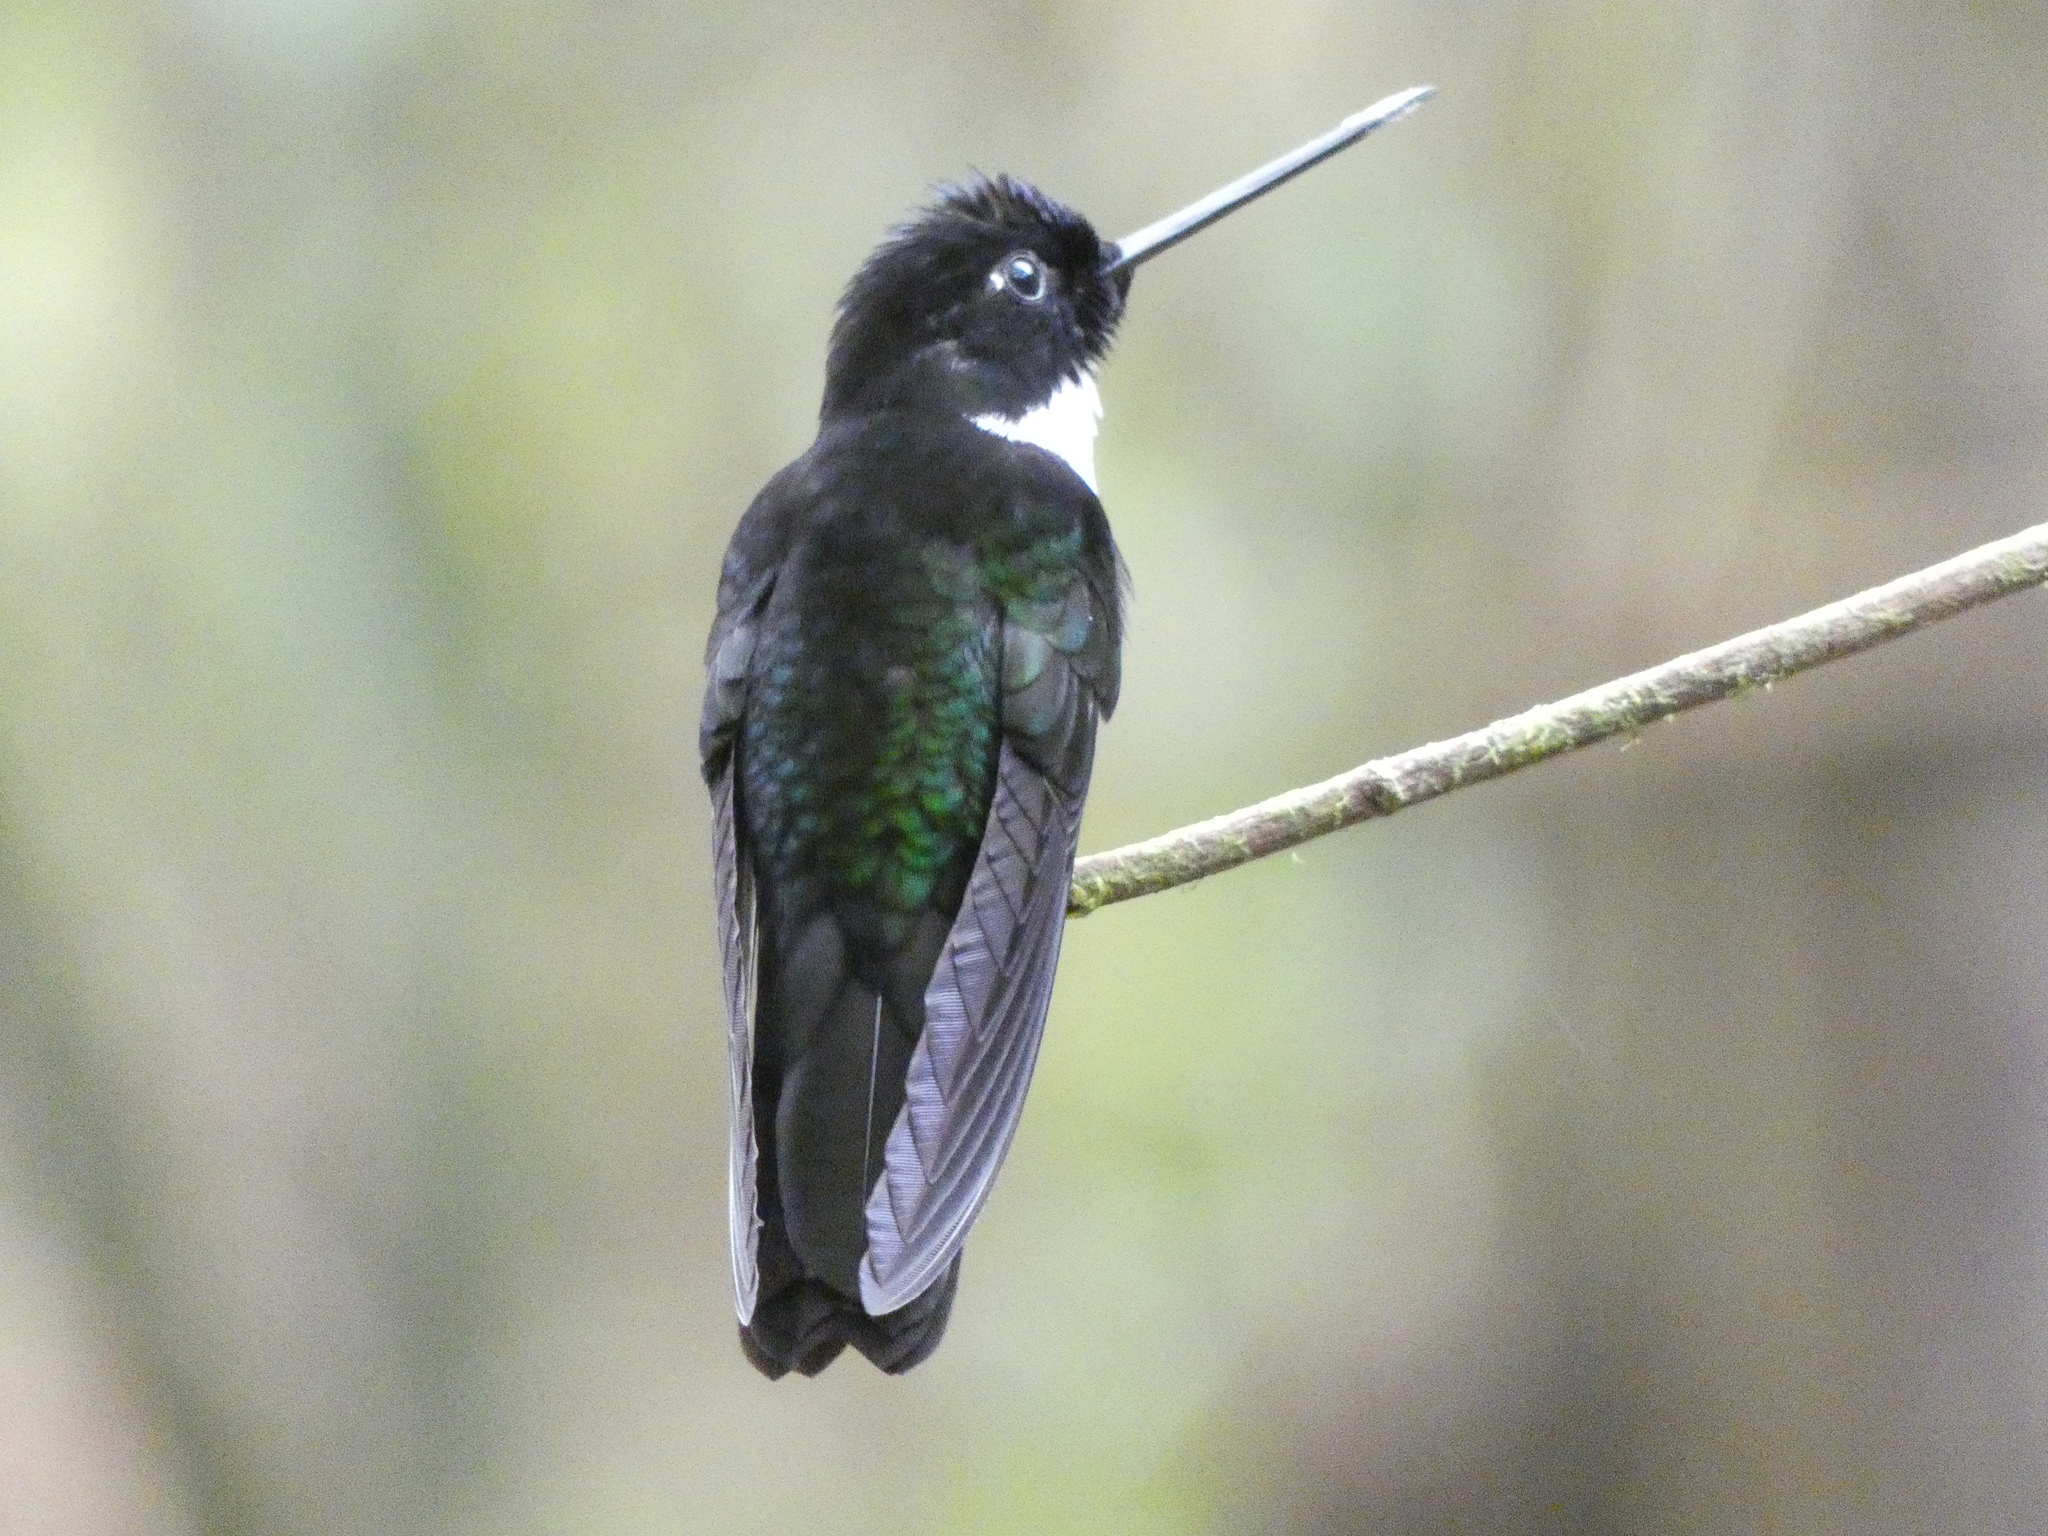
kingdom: Animalia
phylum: Chordata
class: Aves
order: Apodiformes
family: Trochilidae
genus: Coeligena
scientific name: Coeligena torquata
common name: Collared inca
